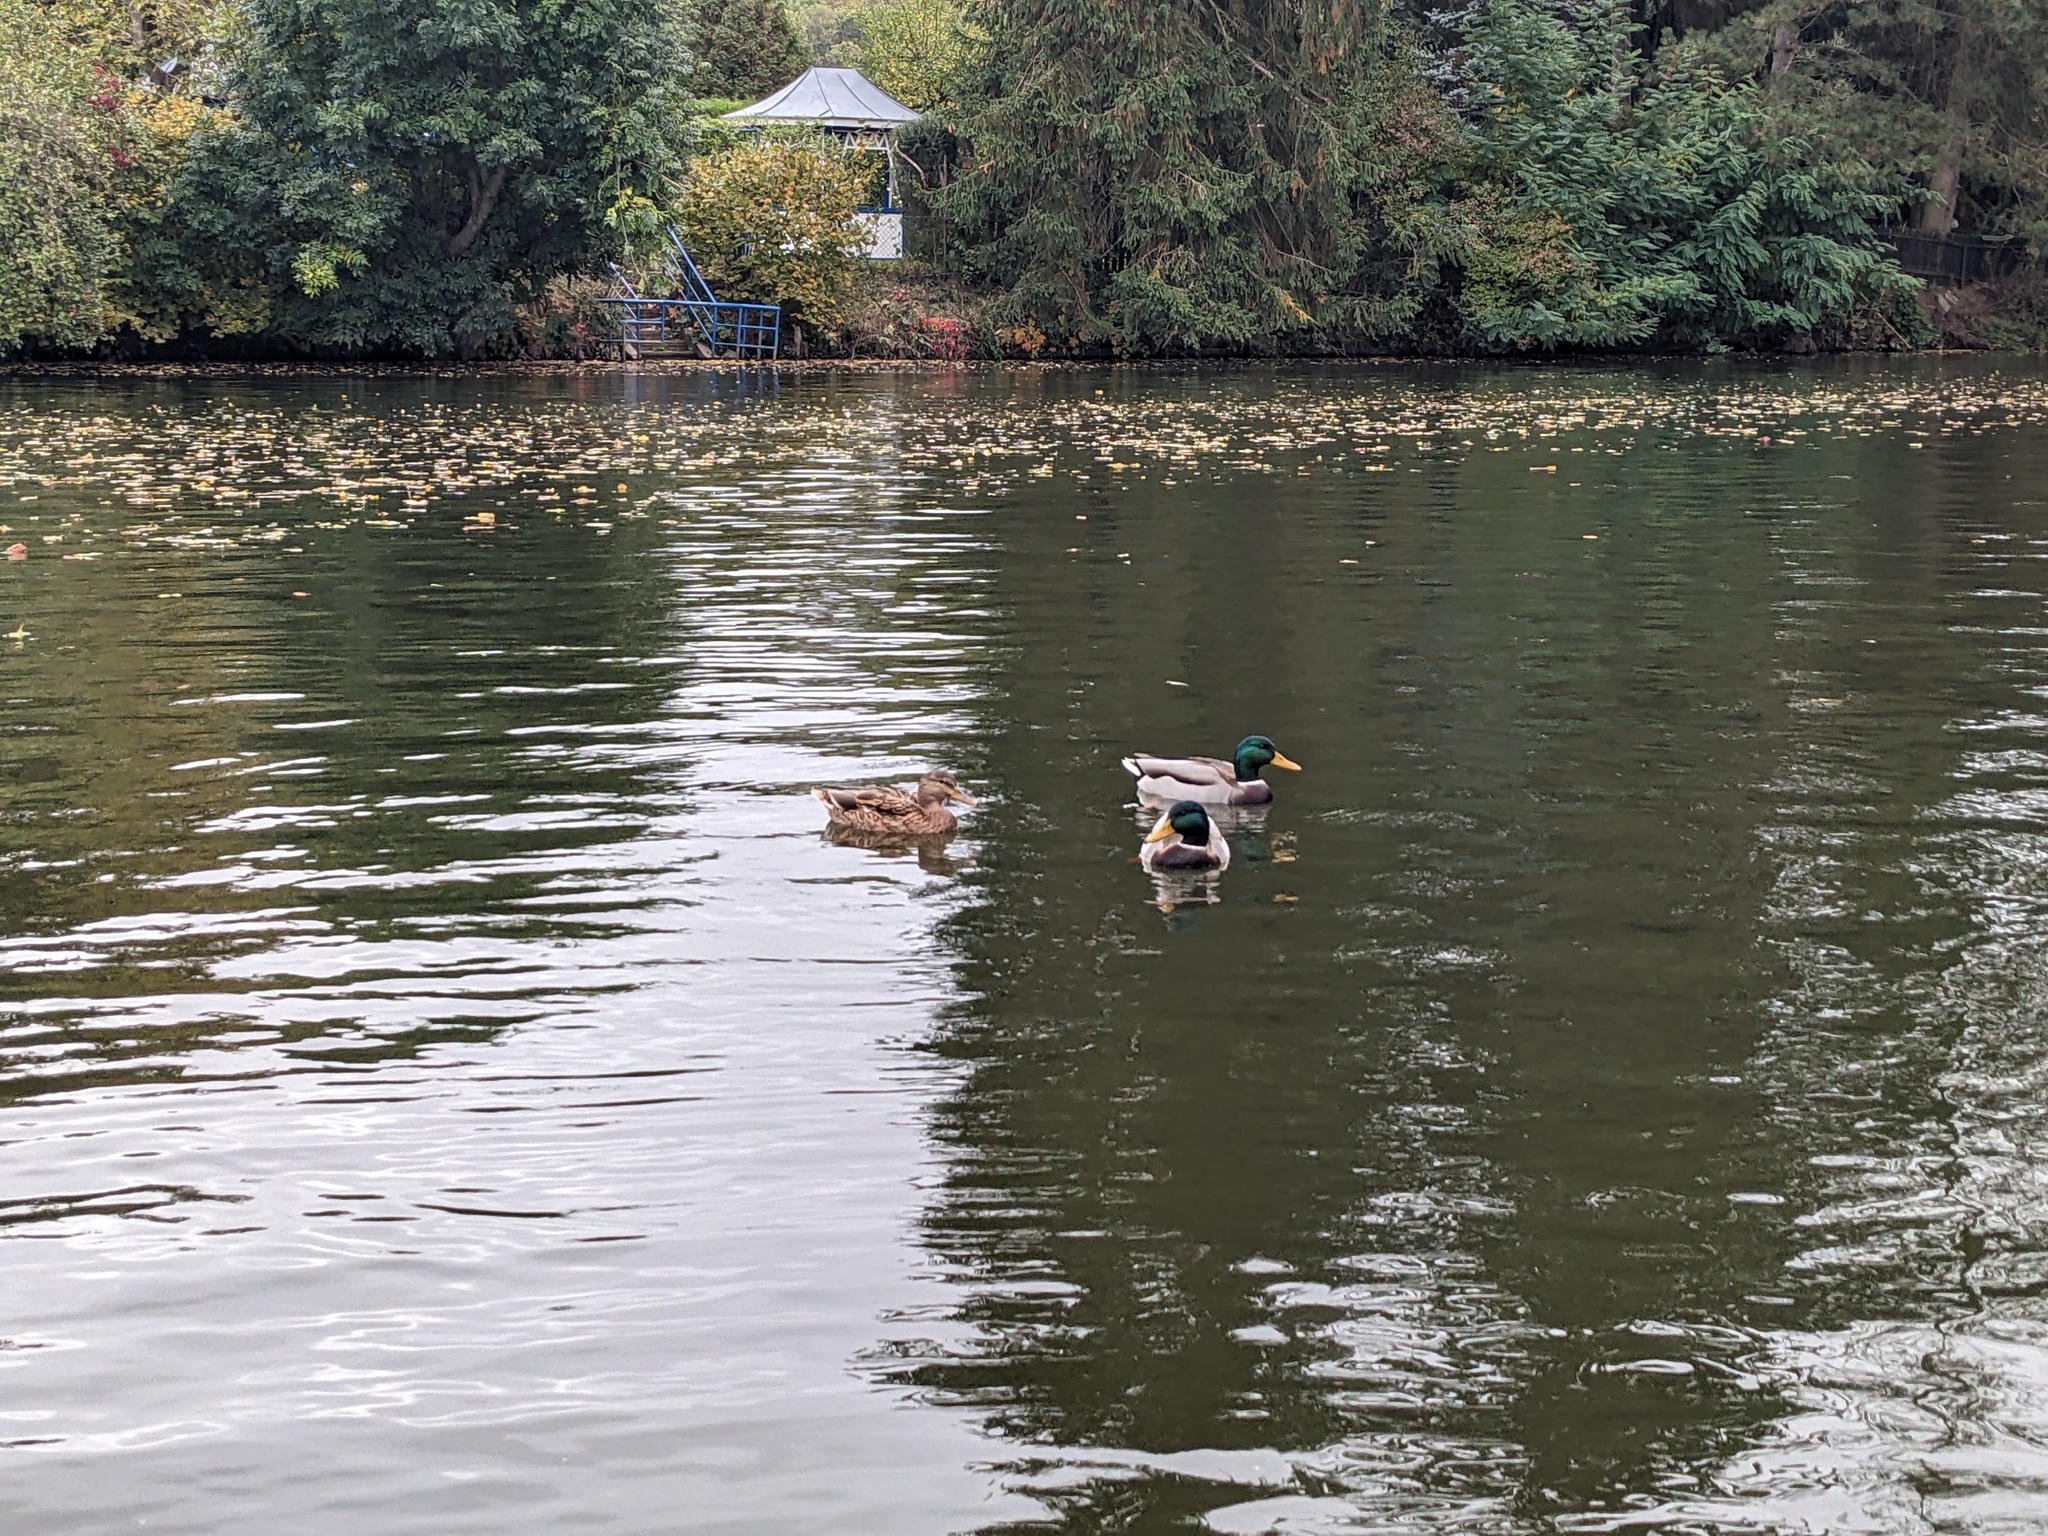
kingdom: Animalia
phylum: Chordata
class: Aves
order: Anseriformes
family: Anatidae
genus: Anas
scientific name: Anas platyrhynchos
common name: Mallard
